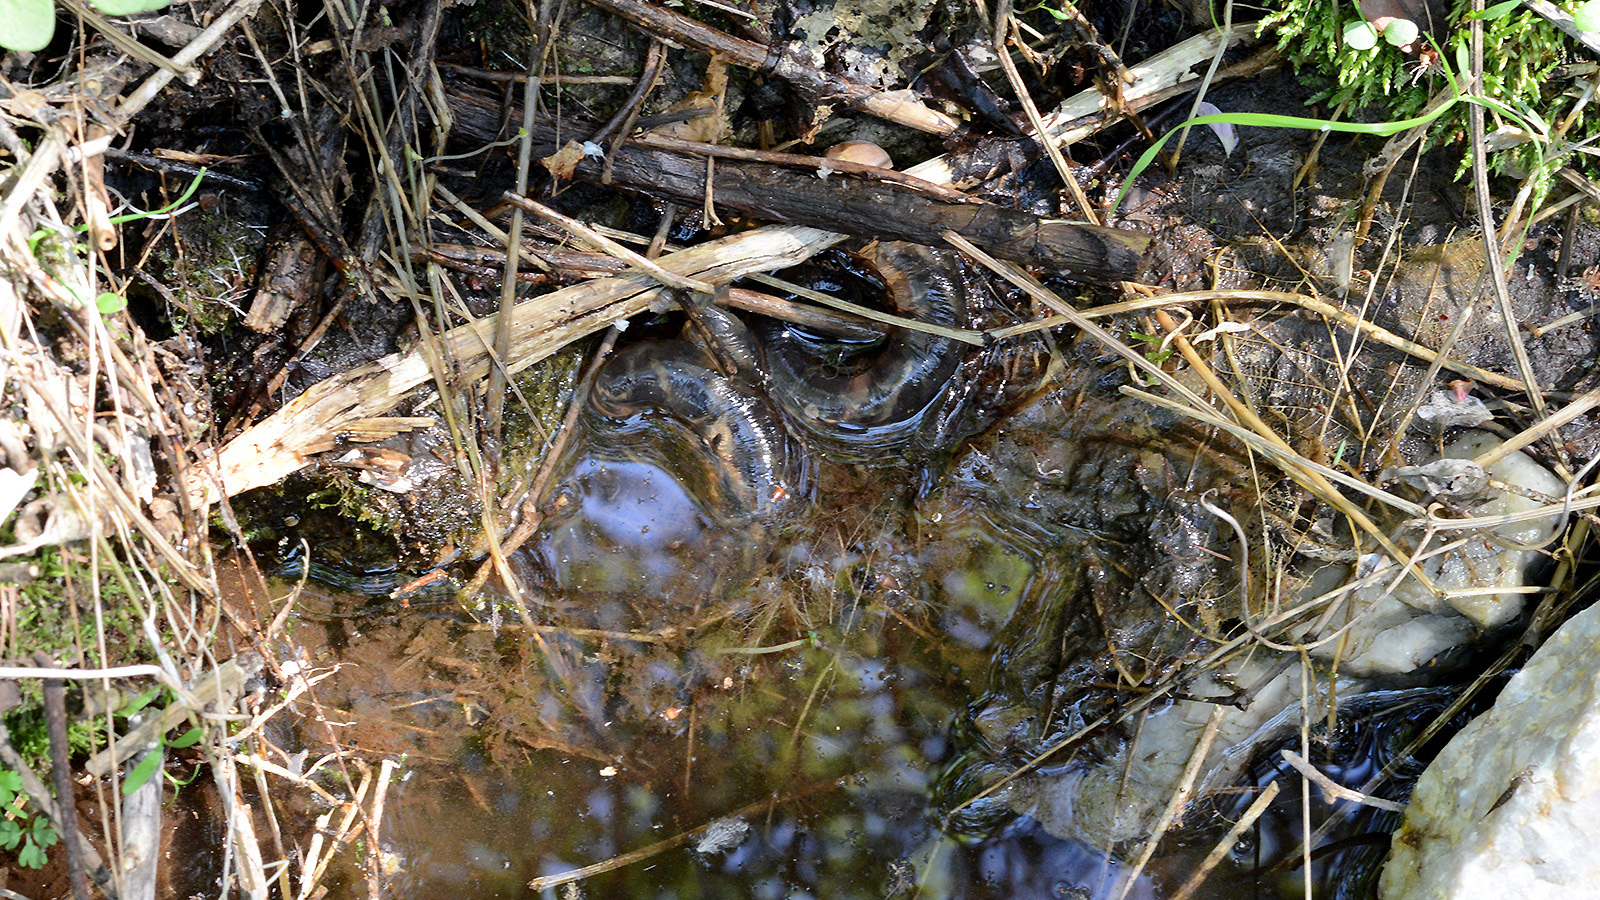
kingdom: Animalia
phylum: Chordata
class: Amphibia
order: Caudata
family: Hynobiidae
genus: Hynobius
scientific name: Hynobius leechii
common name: Gensan salamander
